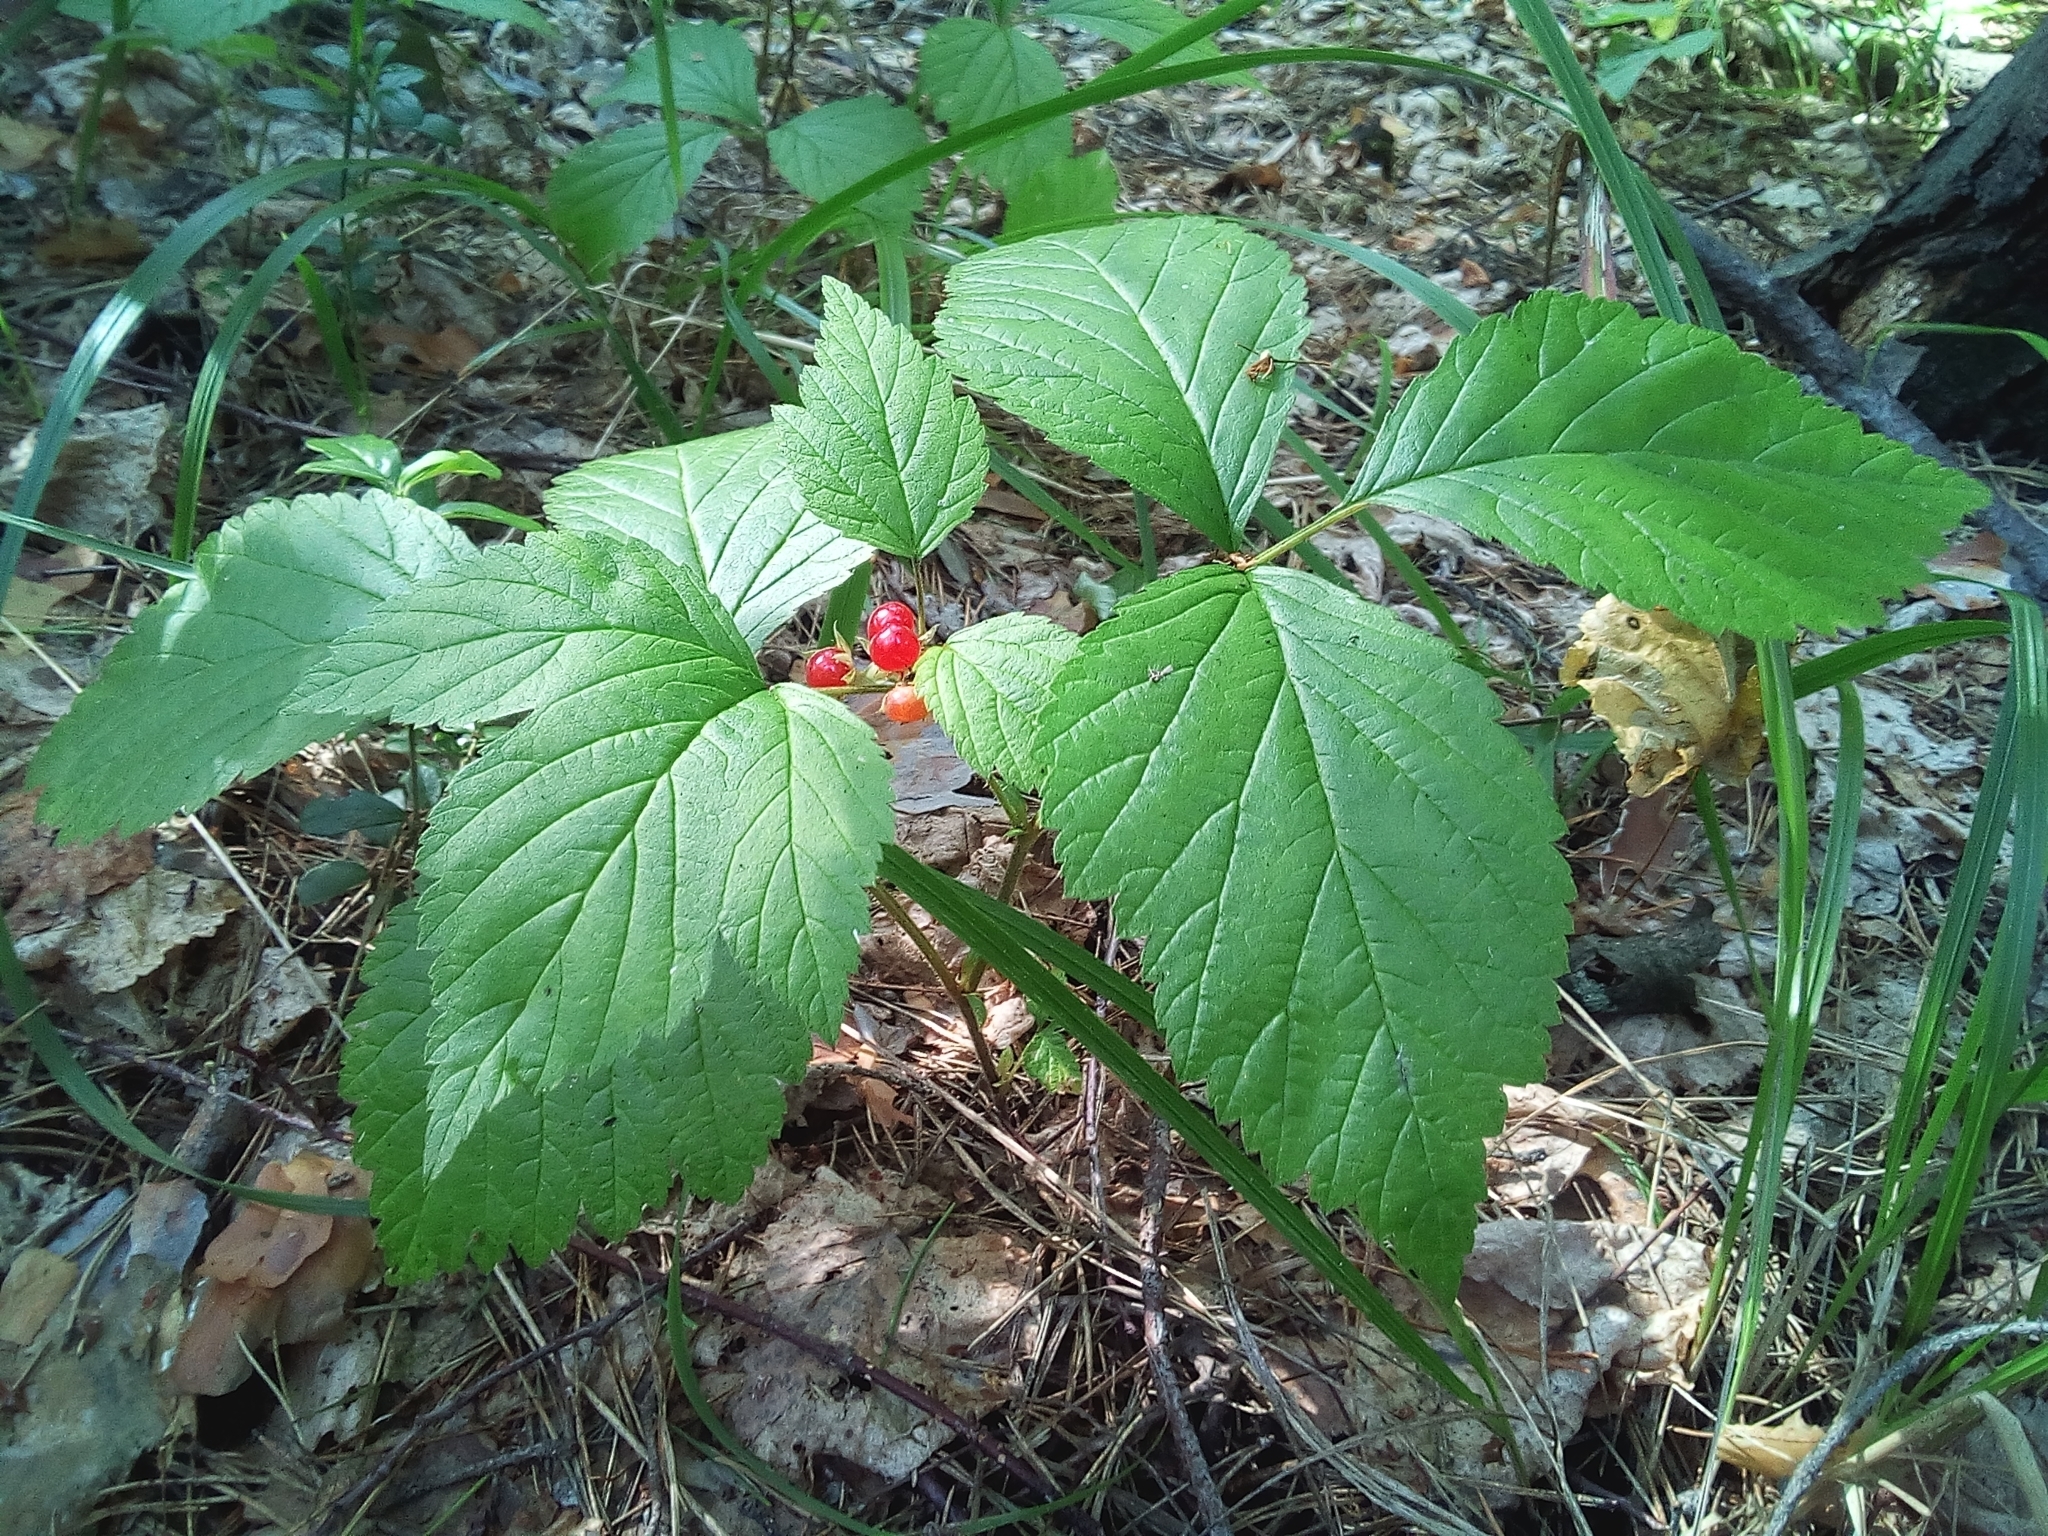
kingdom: Plantae
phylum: Tracheophyta
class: Magnoliopsida
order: Rosales
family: Rosaceae
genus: Rubus
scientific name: Rubus saxatilis
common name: Stone bramble
